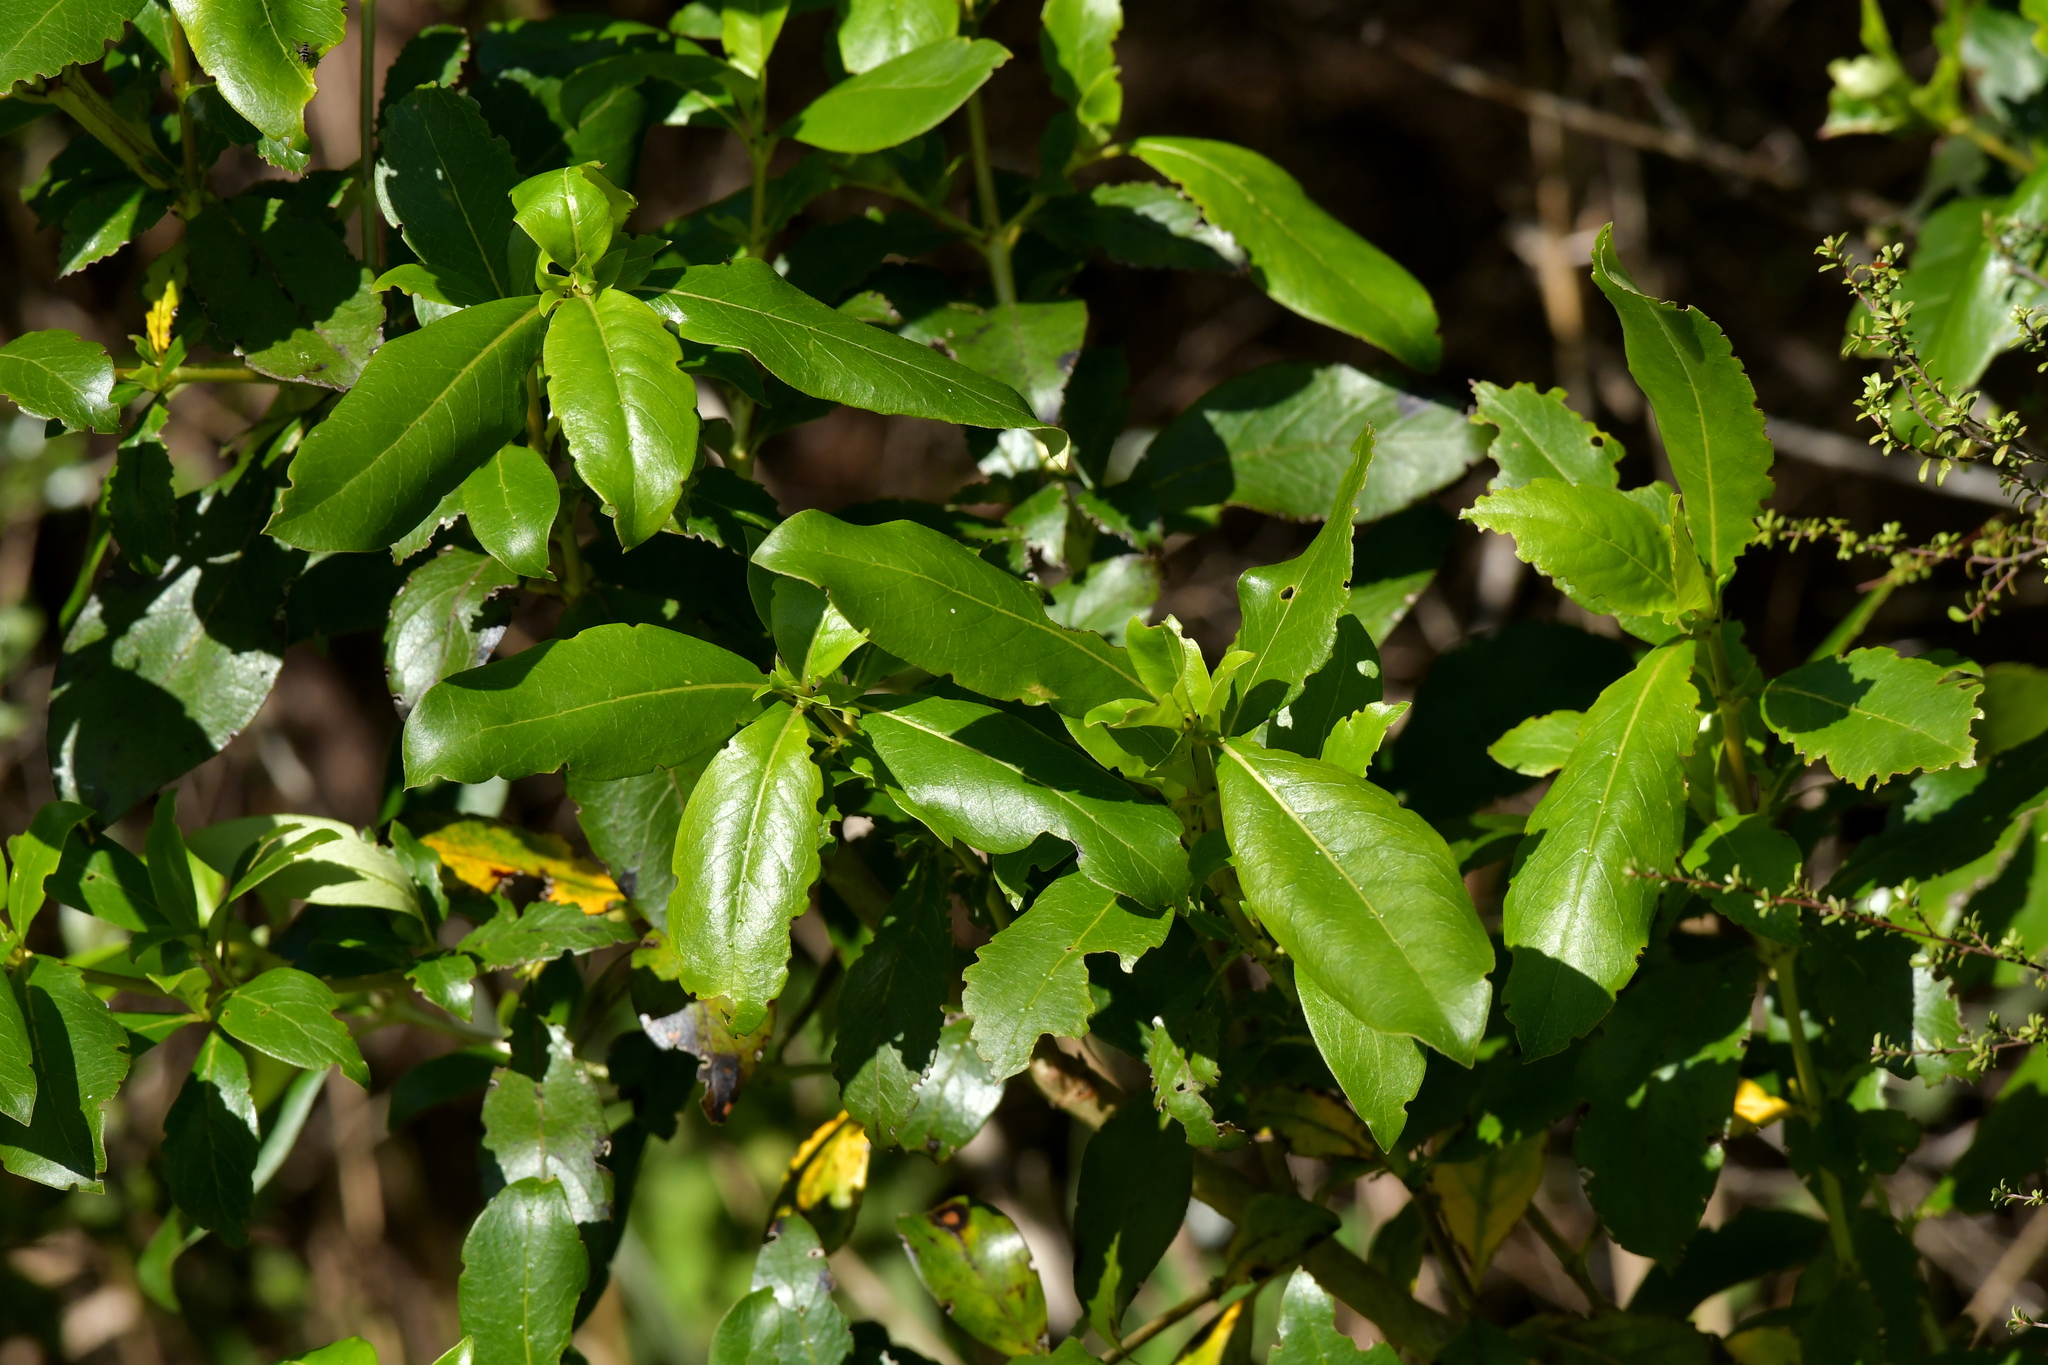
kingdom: Plantae
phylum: Tracheophyta
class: Magnoliopsida
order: Gentianales
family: Rubiaceae
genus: Coprosma
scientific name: Coprosma lucida
